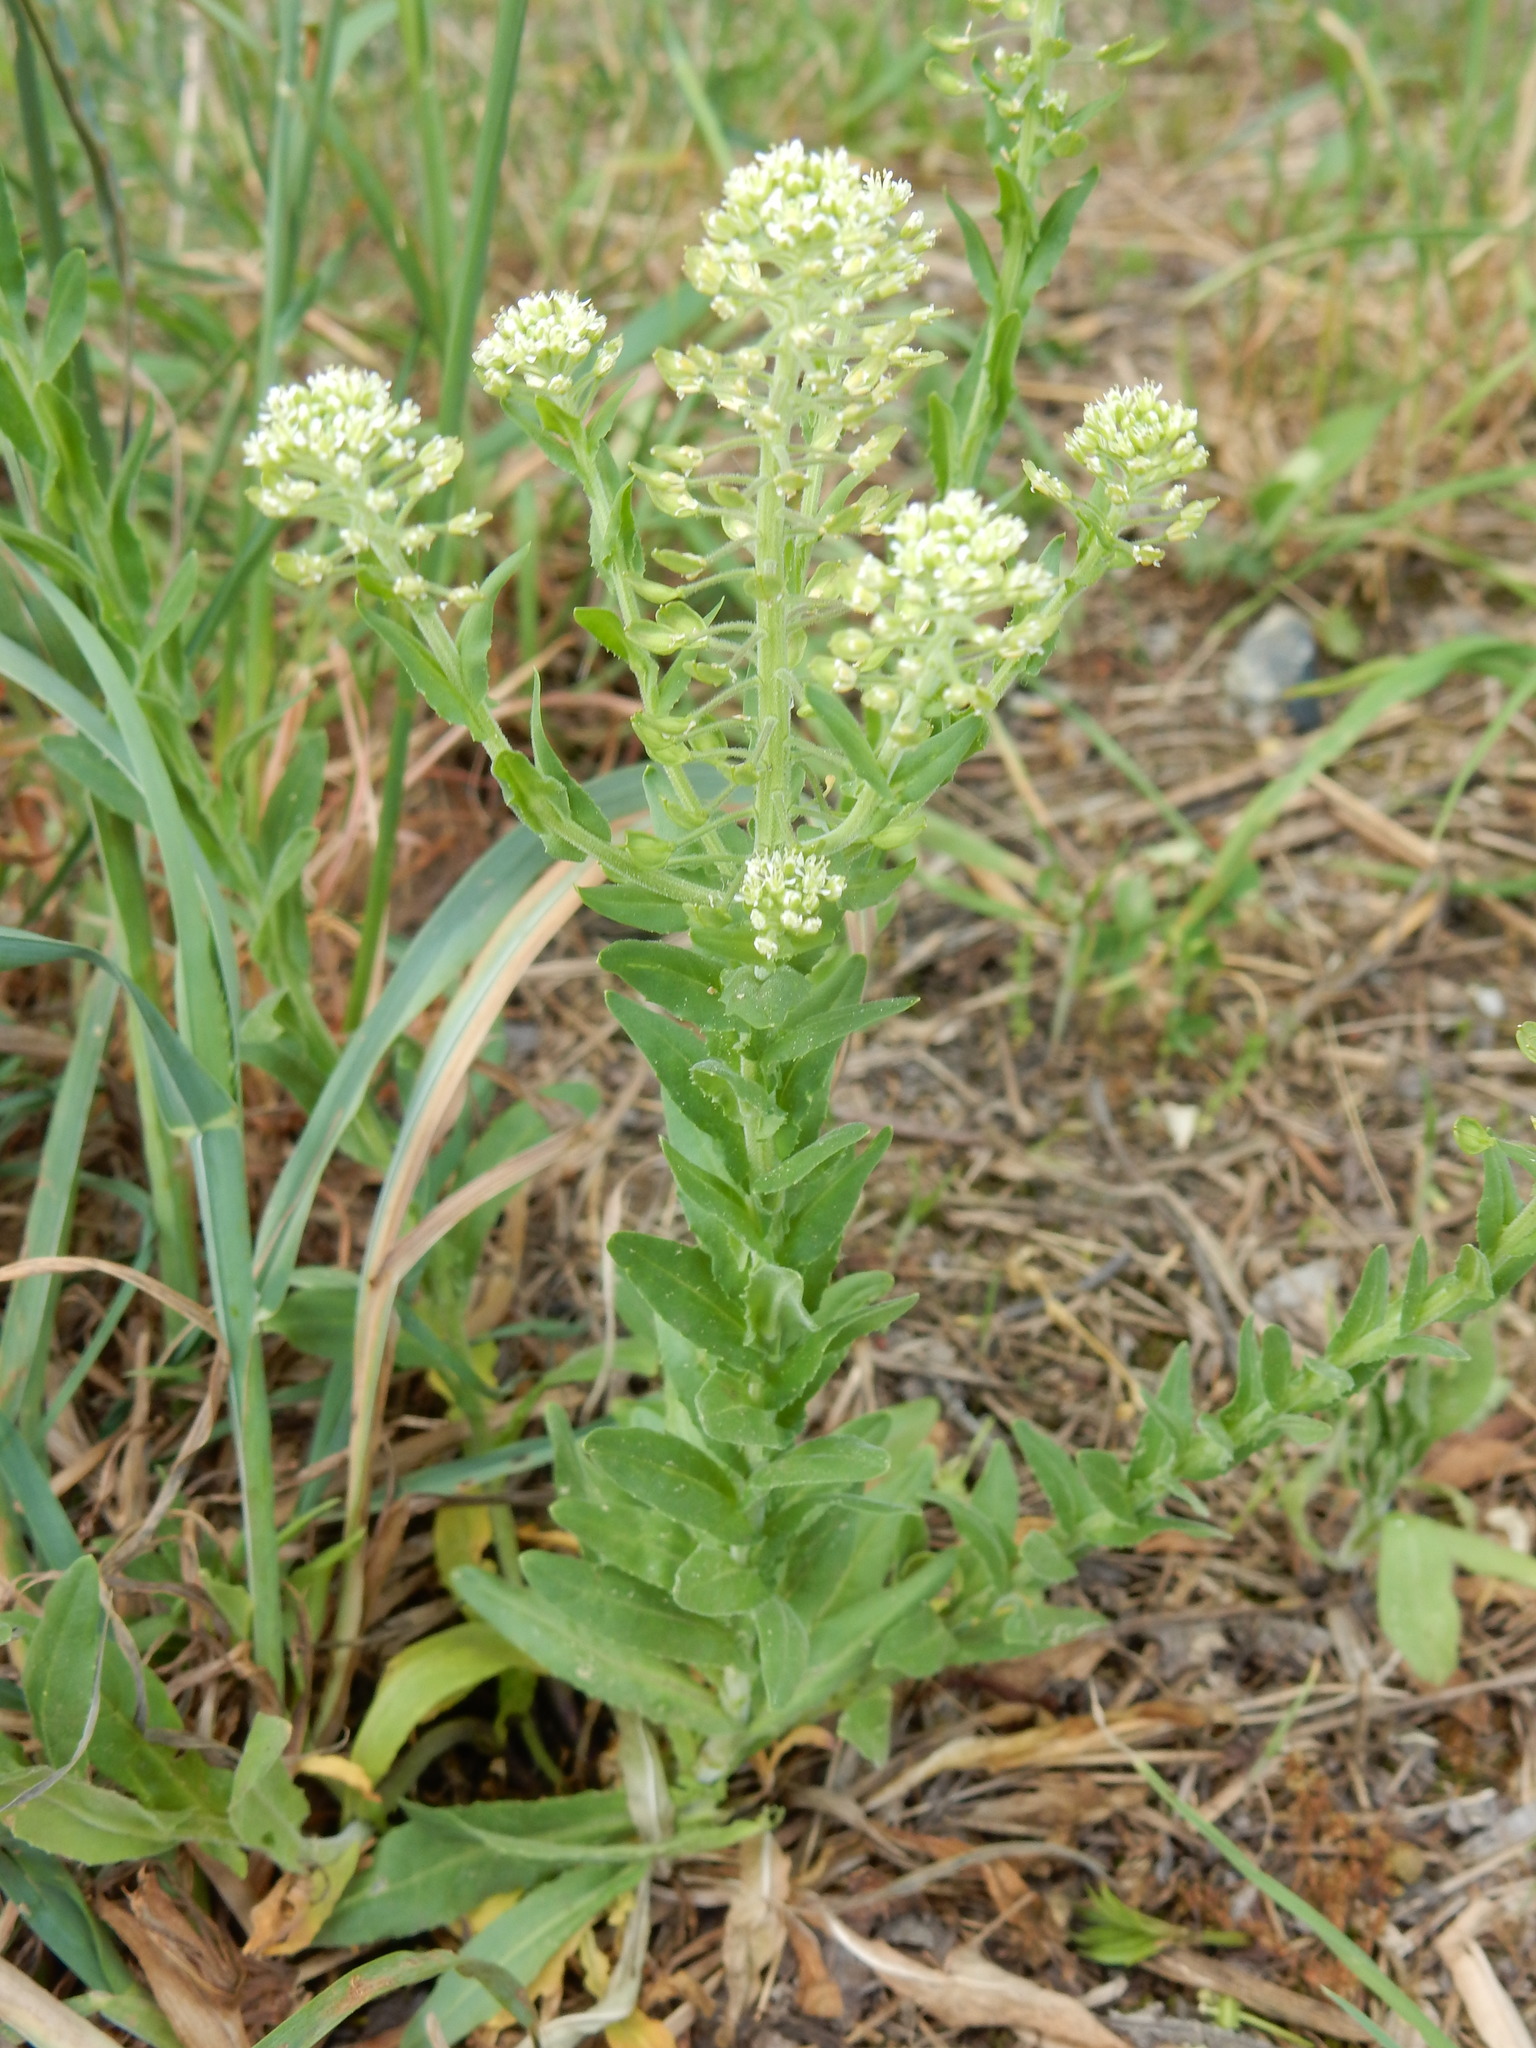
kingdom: Plantae
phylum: Tracheophyta
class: Magnoliopsida
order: Brassicales
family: Brassicaceae
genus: Lepidium
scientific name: Lepidium campestre
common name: Field pepperwort
